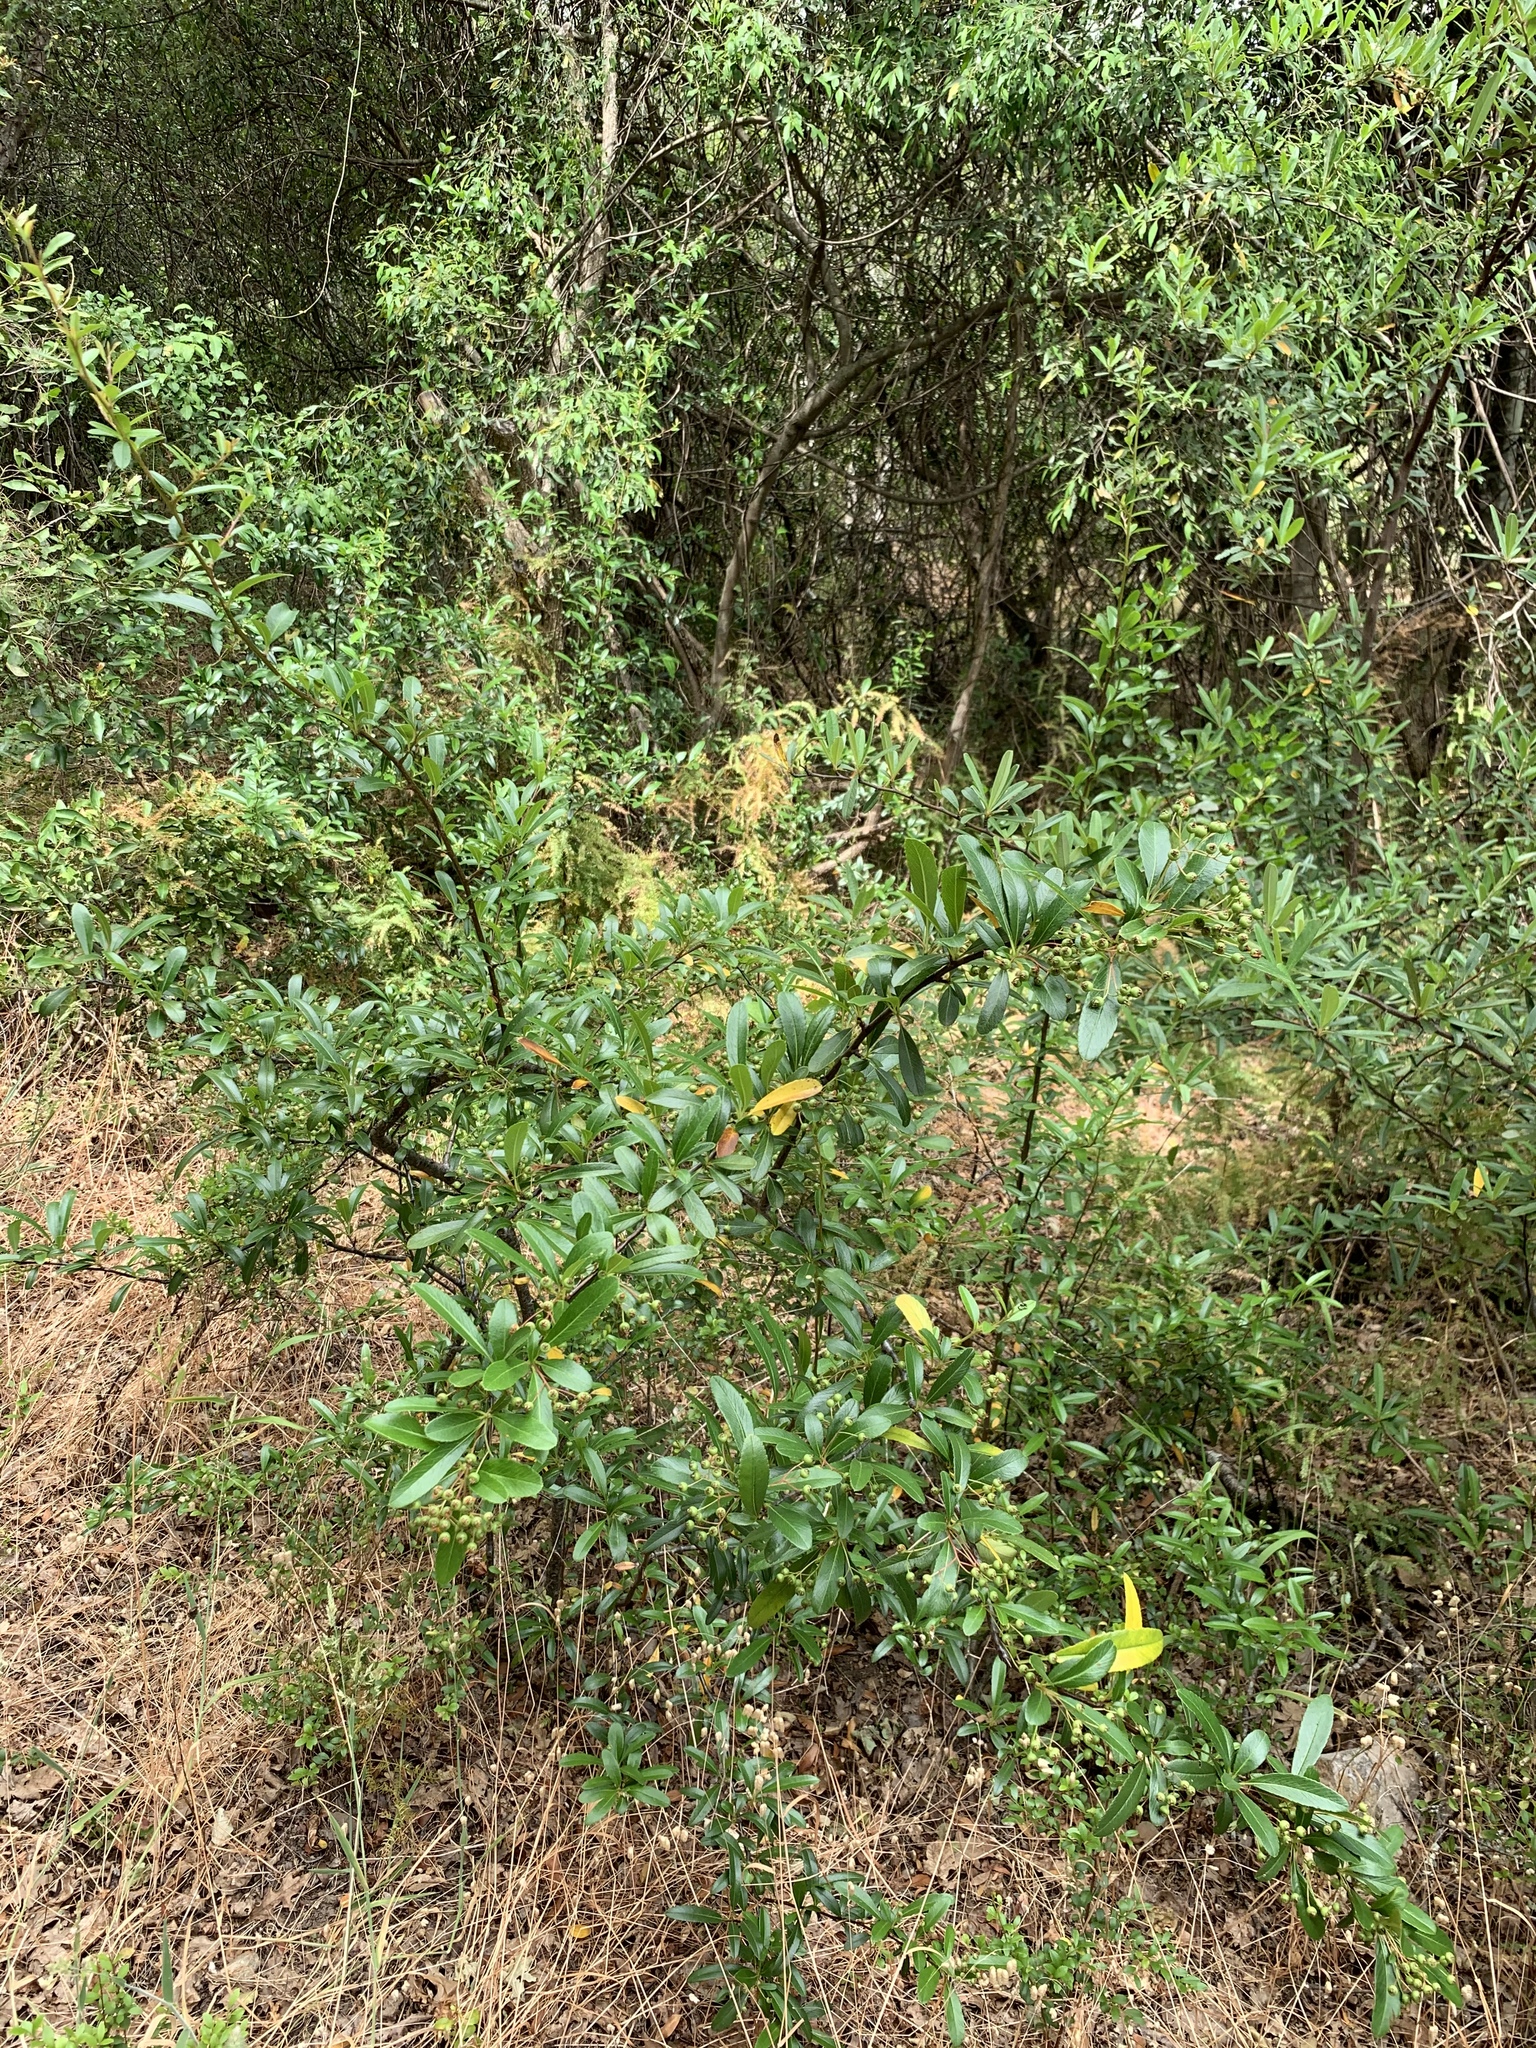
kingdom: Plantae
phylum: Tracheophyta
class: Magnoliopsida
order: Rosales
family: Rosaceae
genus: Pyracantha
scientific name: Pyracantha crenulata
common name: Nepalese firethorn
